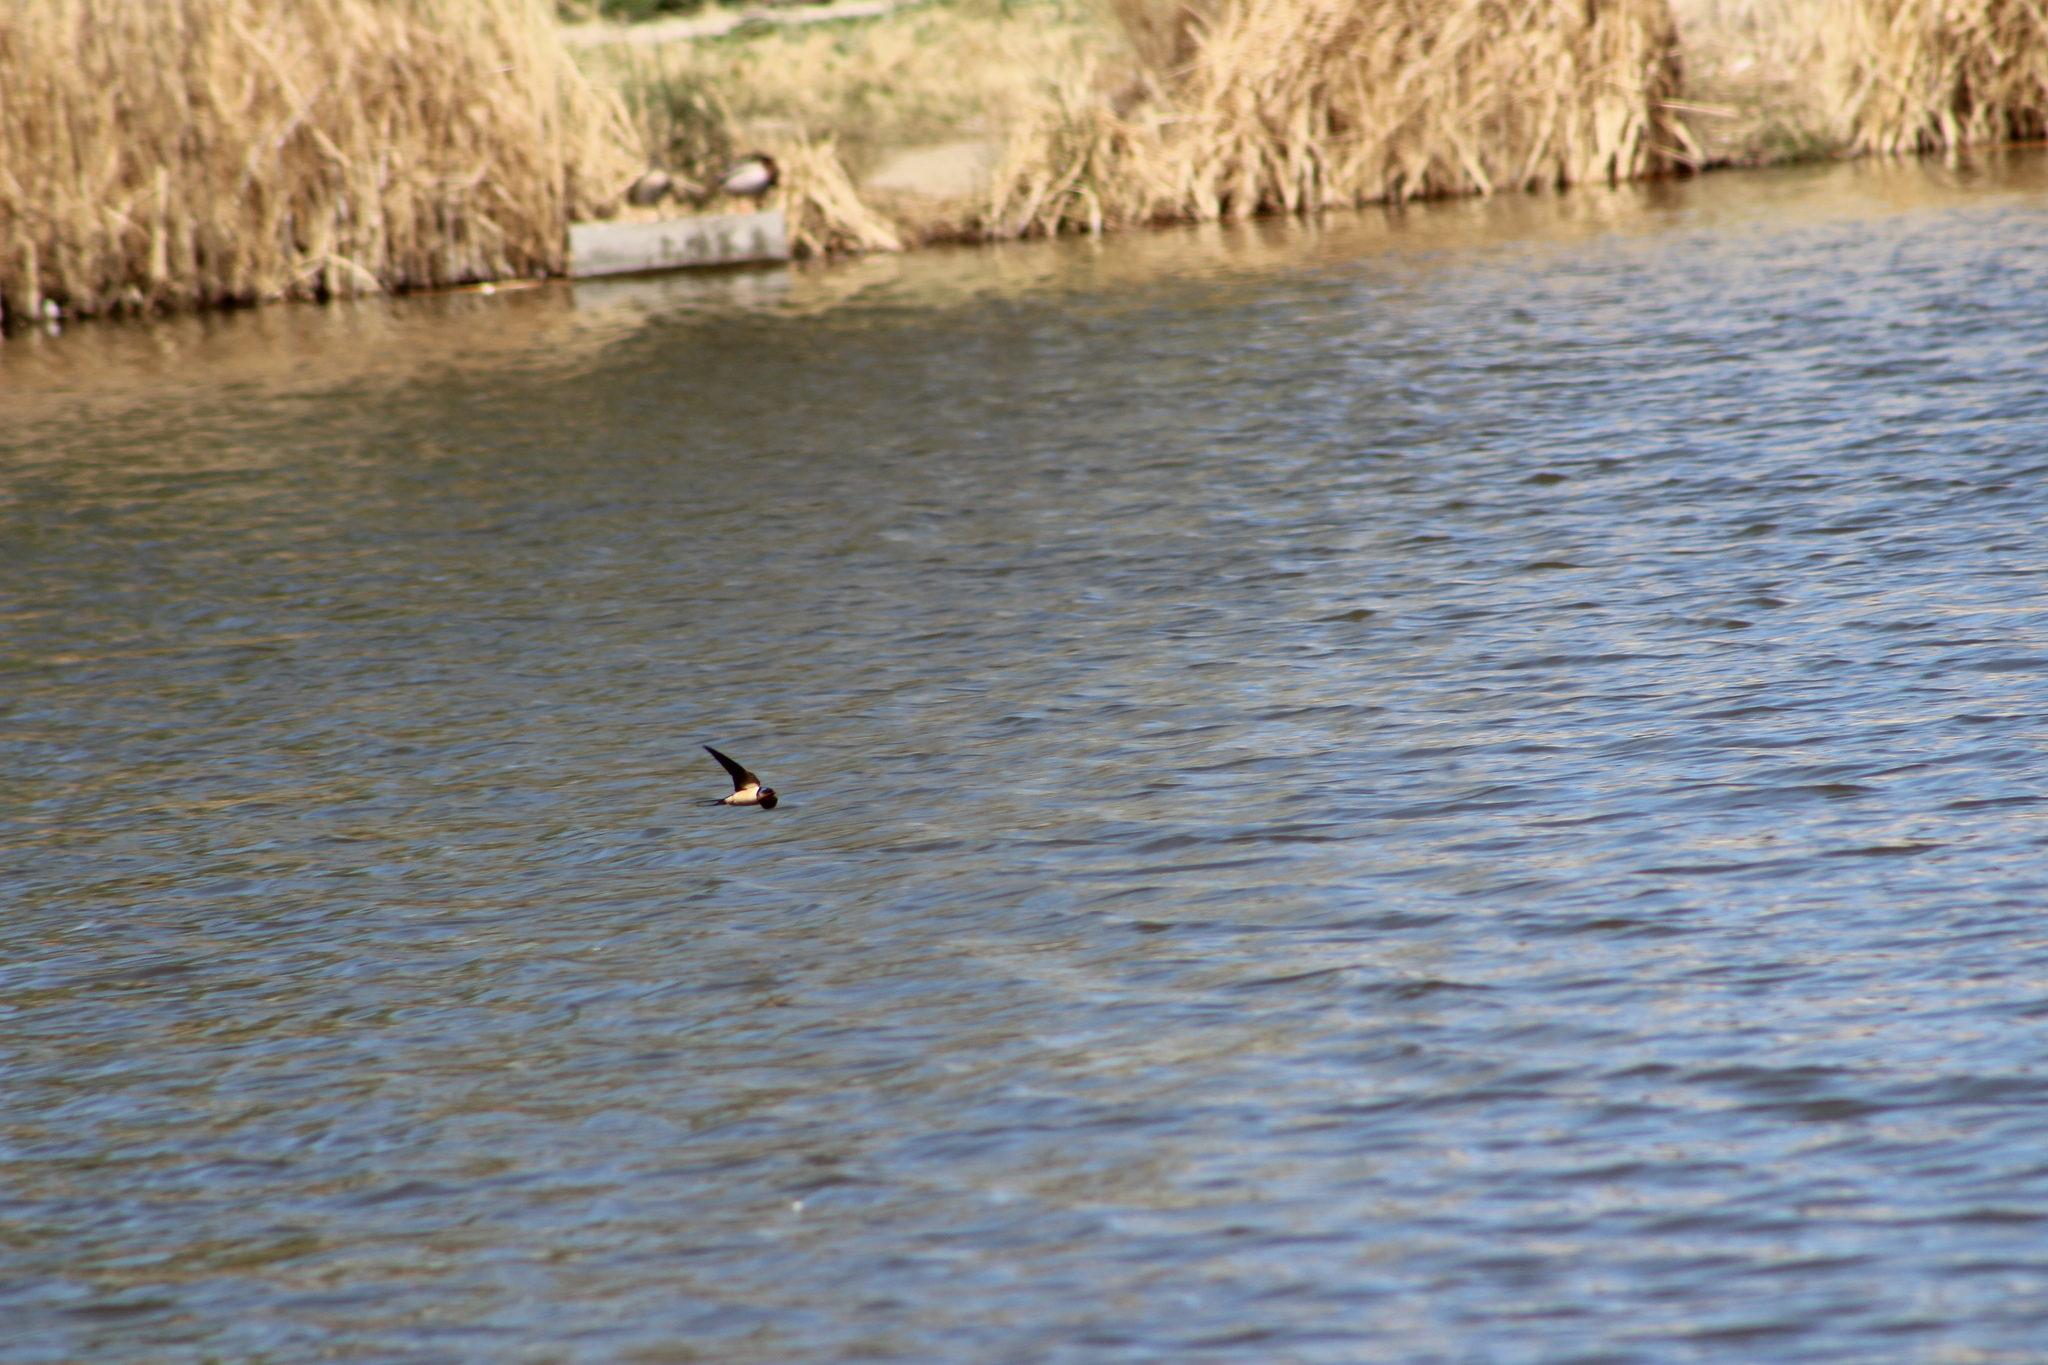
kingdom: Animalia
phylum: Chordata
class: Aves
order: Passeriformes
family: Hirundinidae
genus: Hirundo
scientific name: Hirundo rustica
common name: Barn swallow
